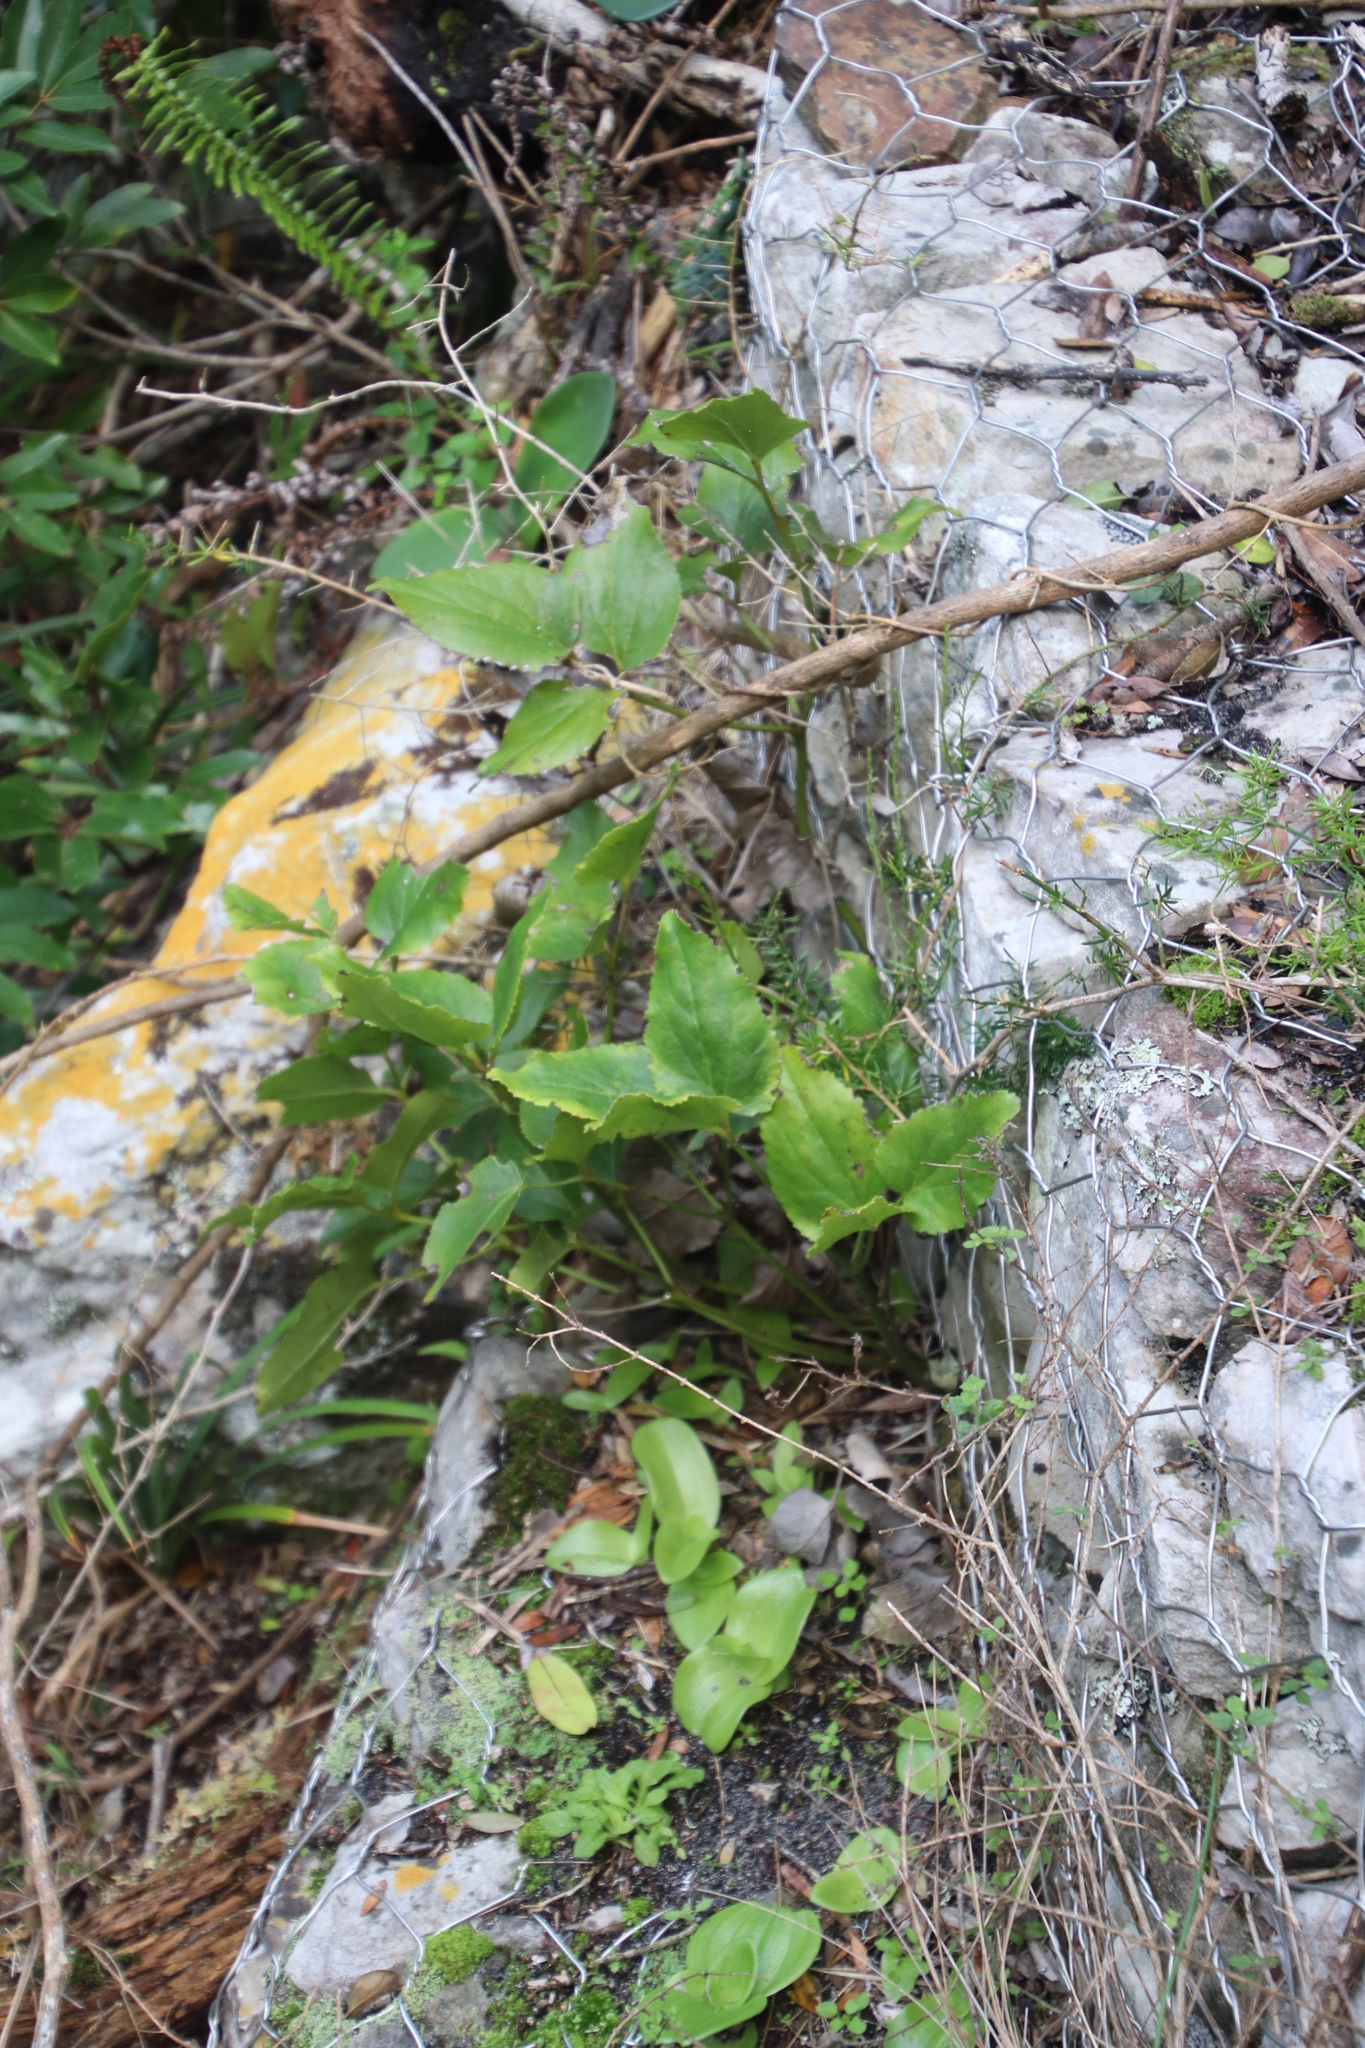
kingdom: Plantae
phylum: Tracheophyta
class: Magnoliopsida
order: Ranunculales
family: Ranunculaceae
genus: Knowltonia
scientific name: Knowltonia vesicatoria
